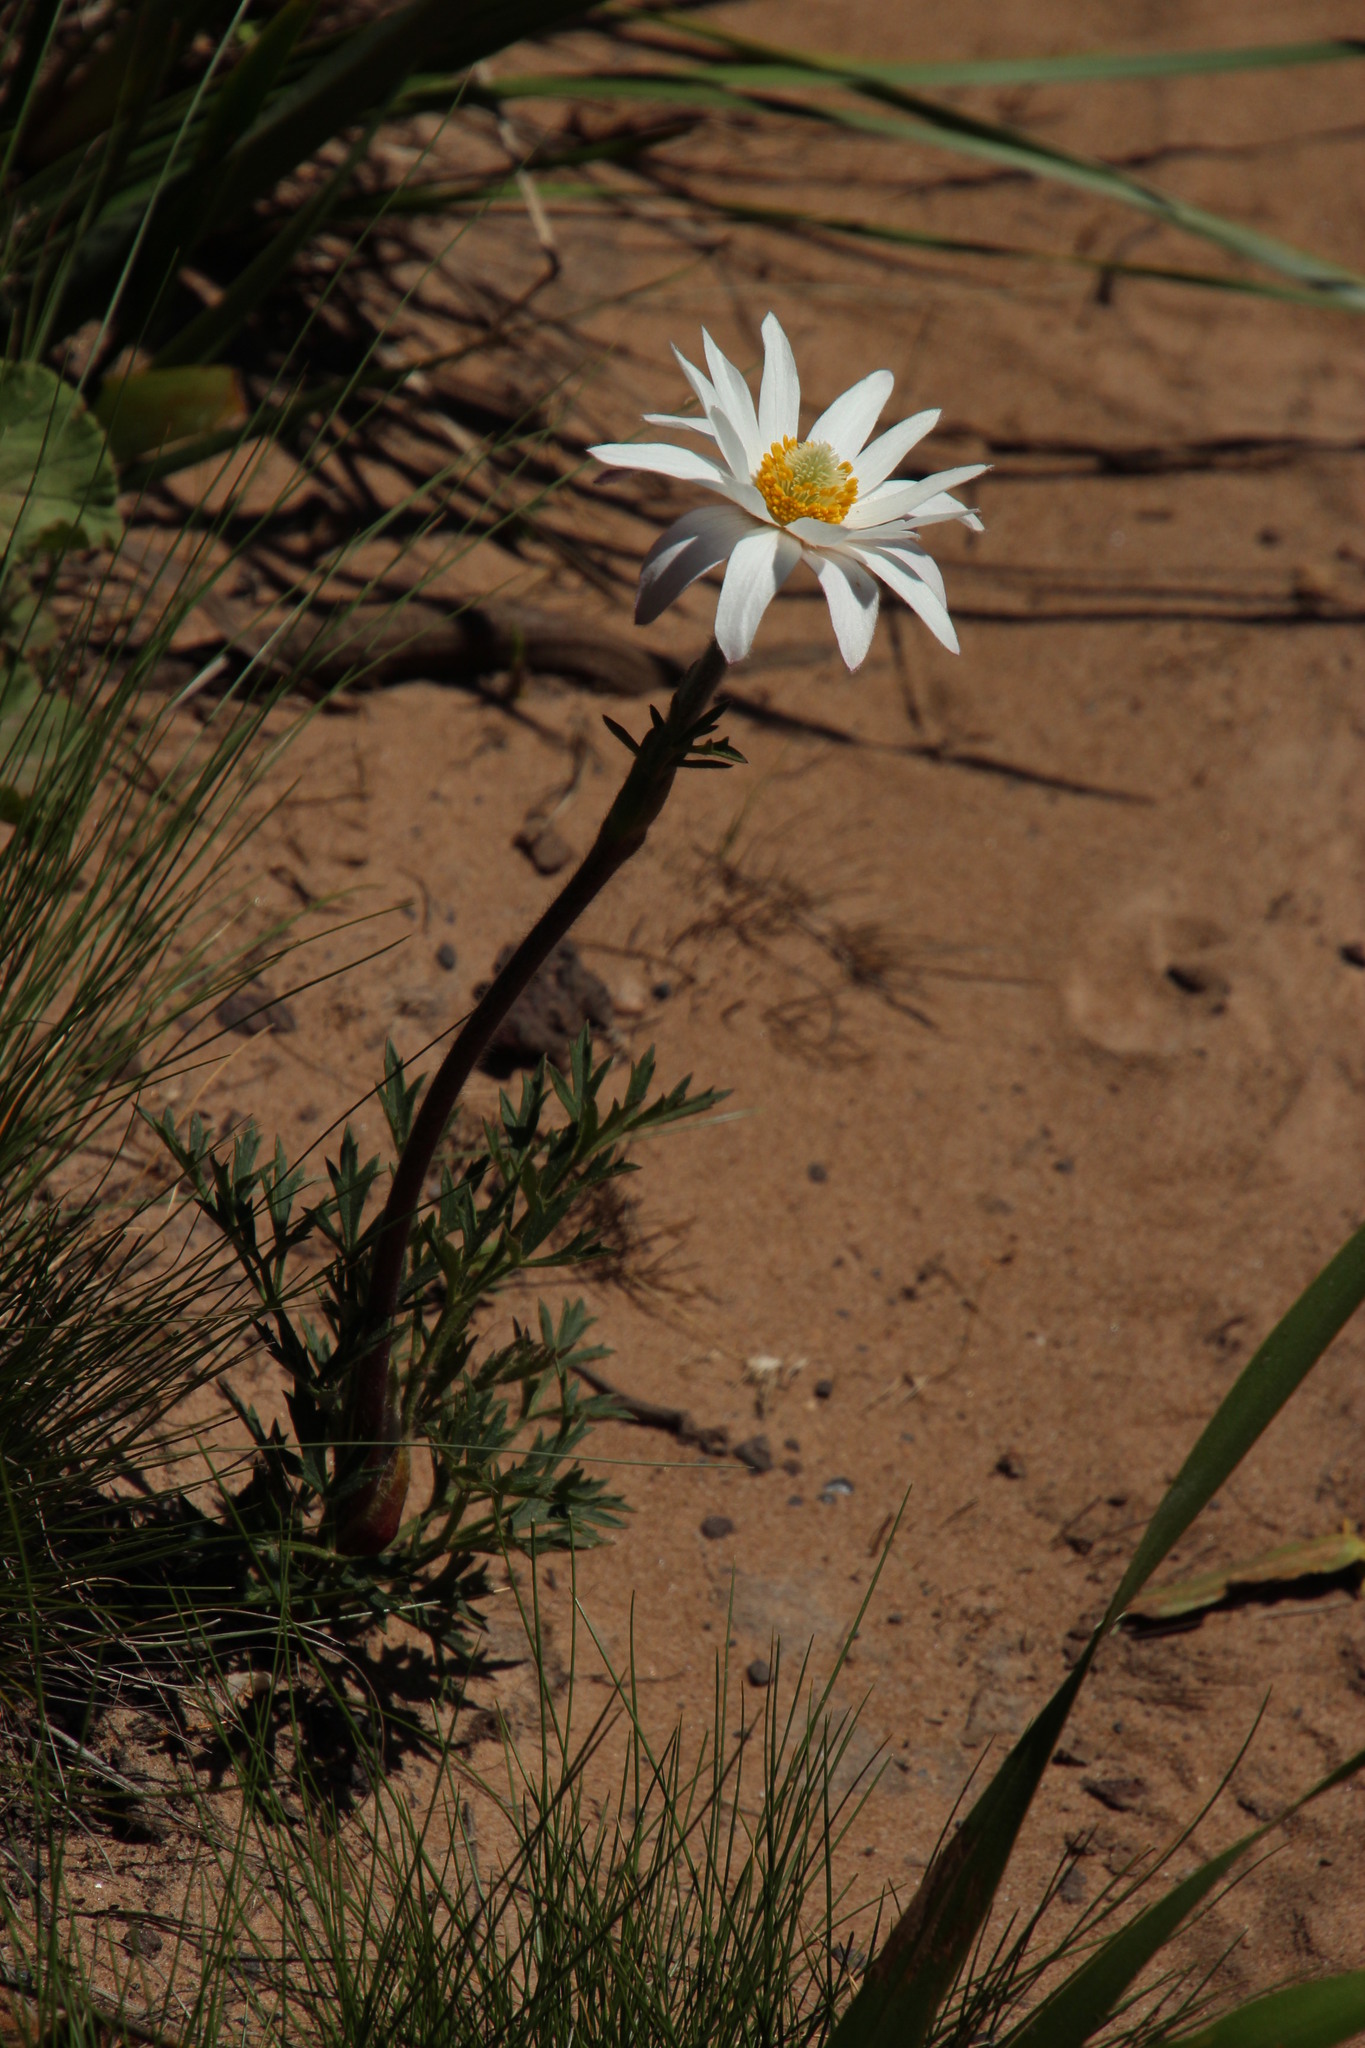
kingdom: Plantae
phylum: Tracheophyta
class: Magnoliopsida
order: Ranunculales
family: Ranunculaceae
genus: Knowltonia
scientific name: Knowltonia tenuifolia
